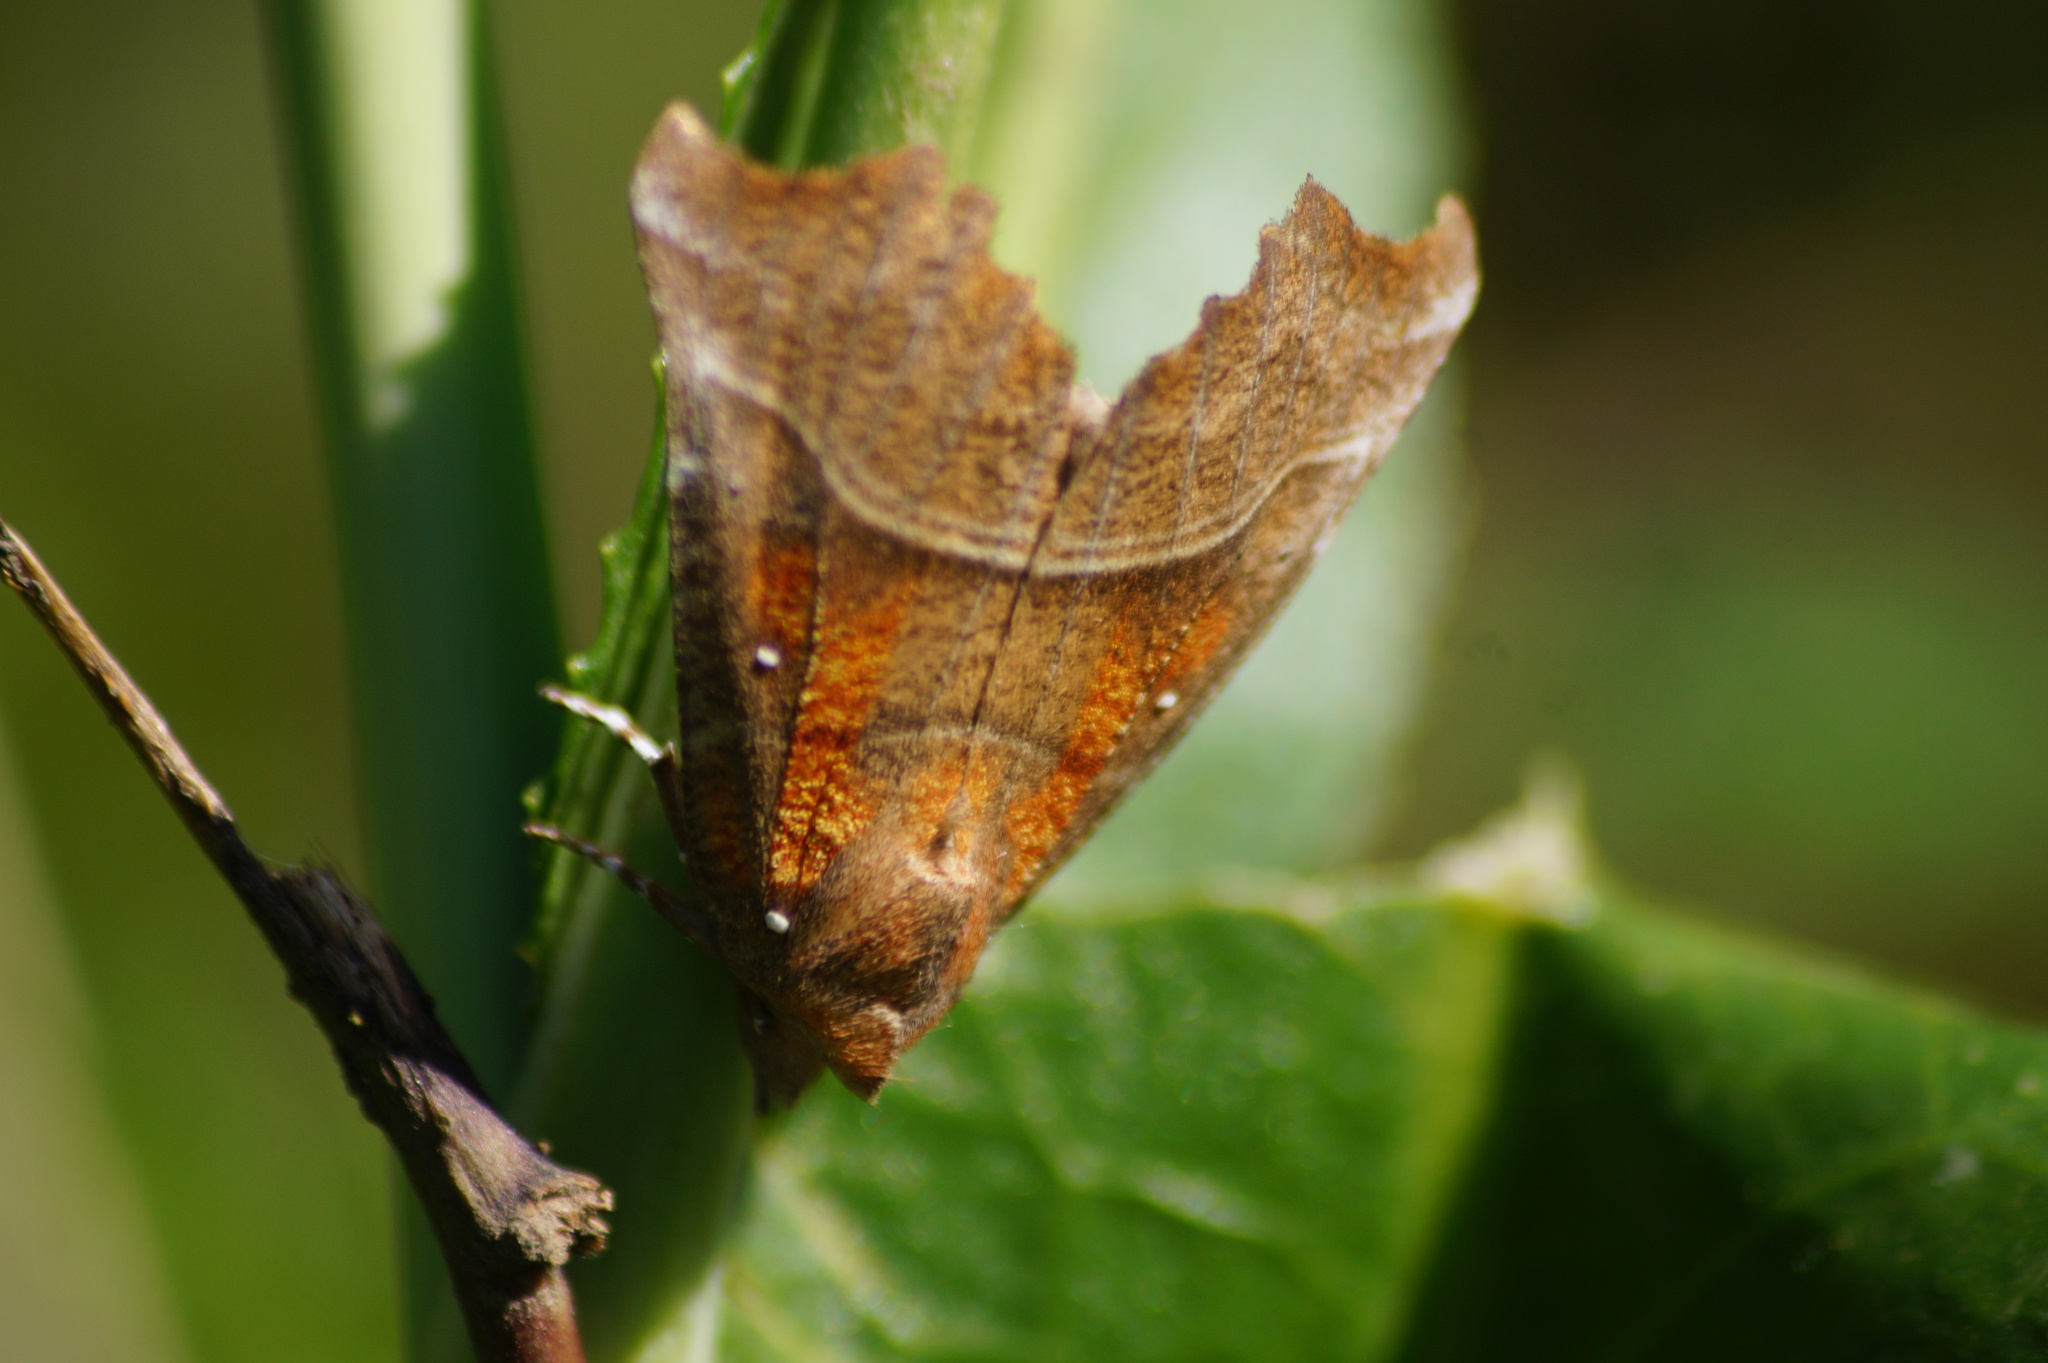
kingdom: Animalia
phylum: Arthropoda
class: Insecta
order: Lepidoptera
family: Erebidae
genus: Scoliopteryx
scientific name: Scoliopteryx libatrix
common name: Herald
